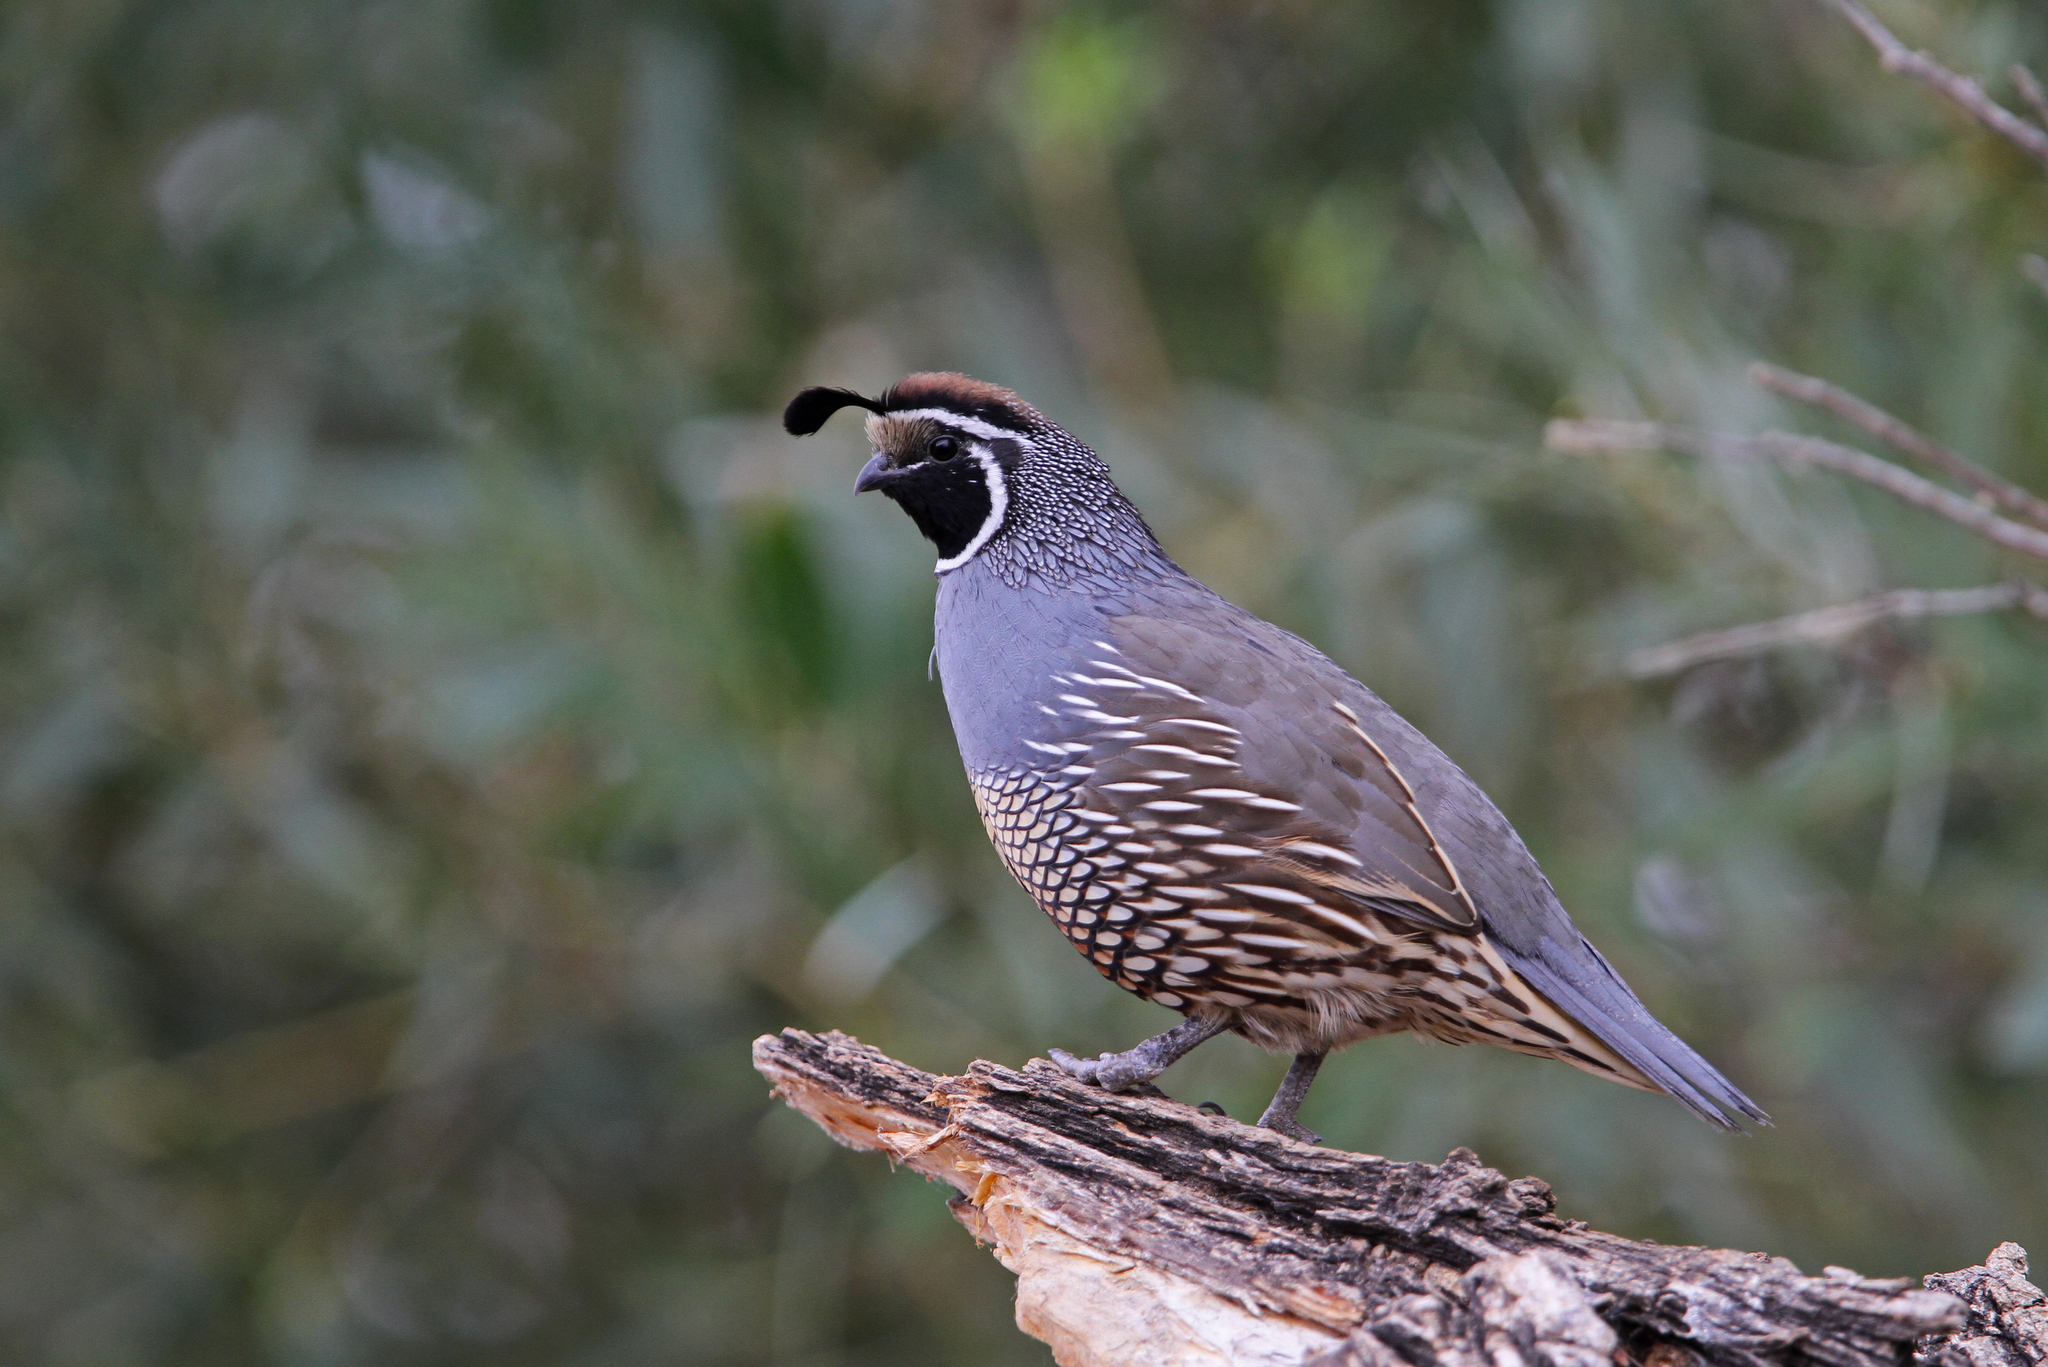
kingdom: Animalia
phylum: Chordata
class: Aves
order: Galliformes
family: Odontophoridae
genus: Callipepla
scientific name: Callipepla californica
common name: California quail
